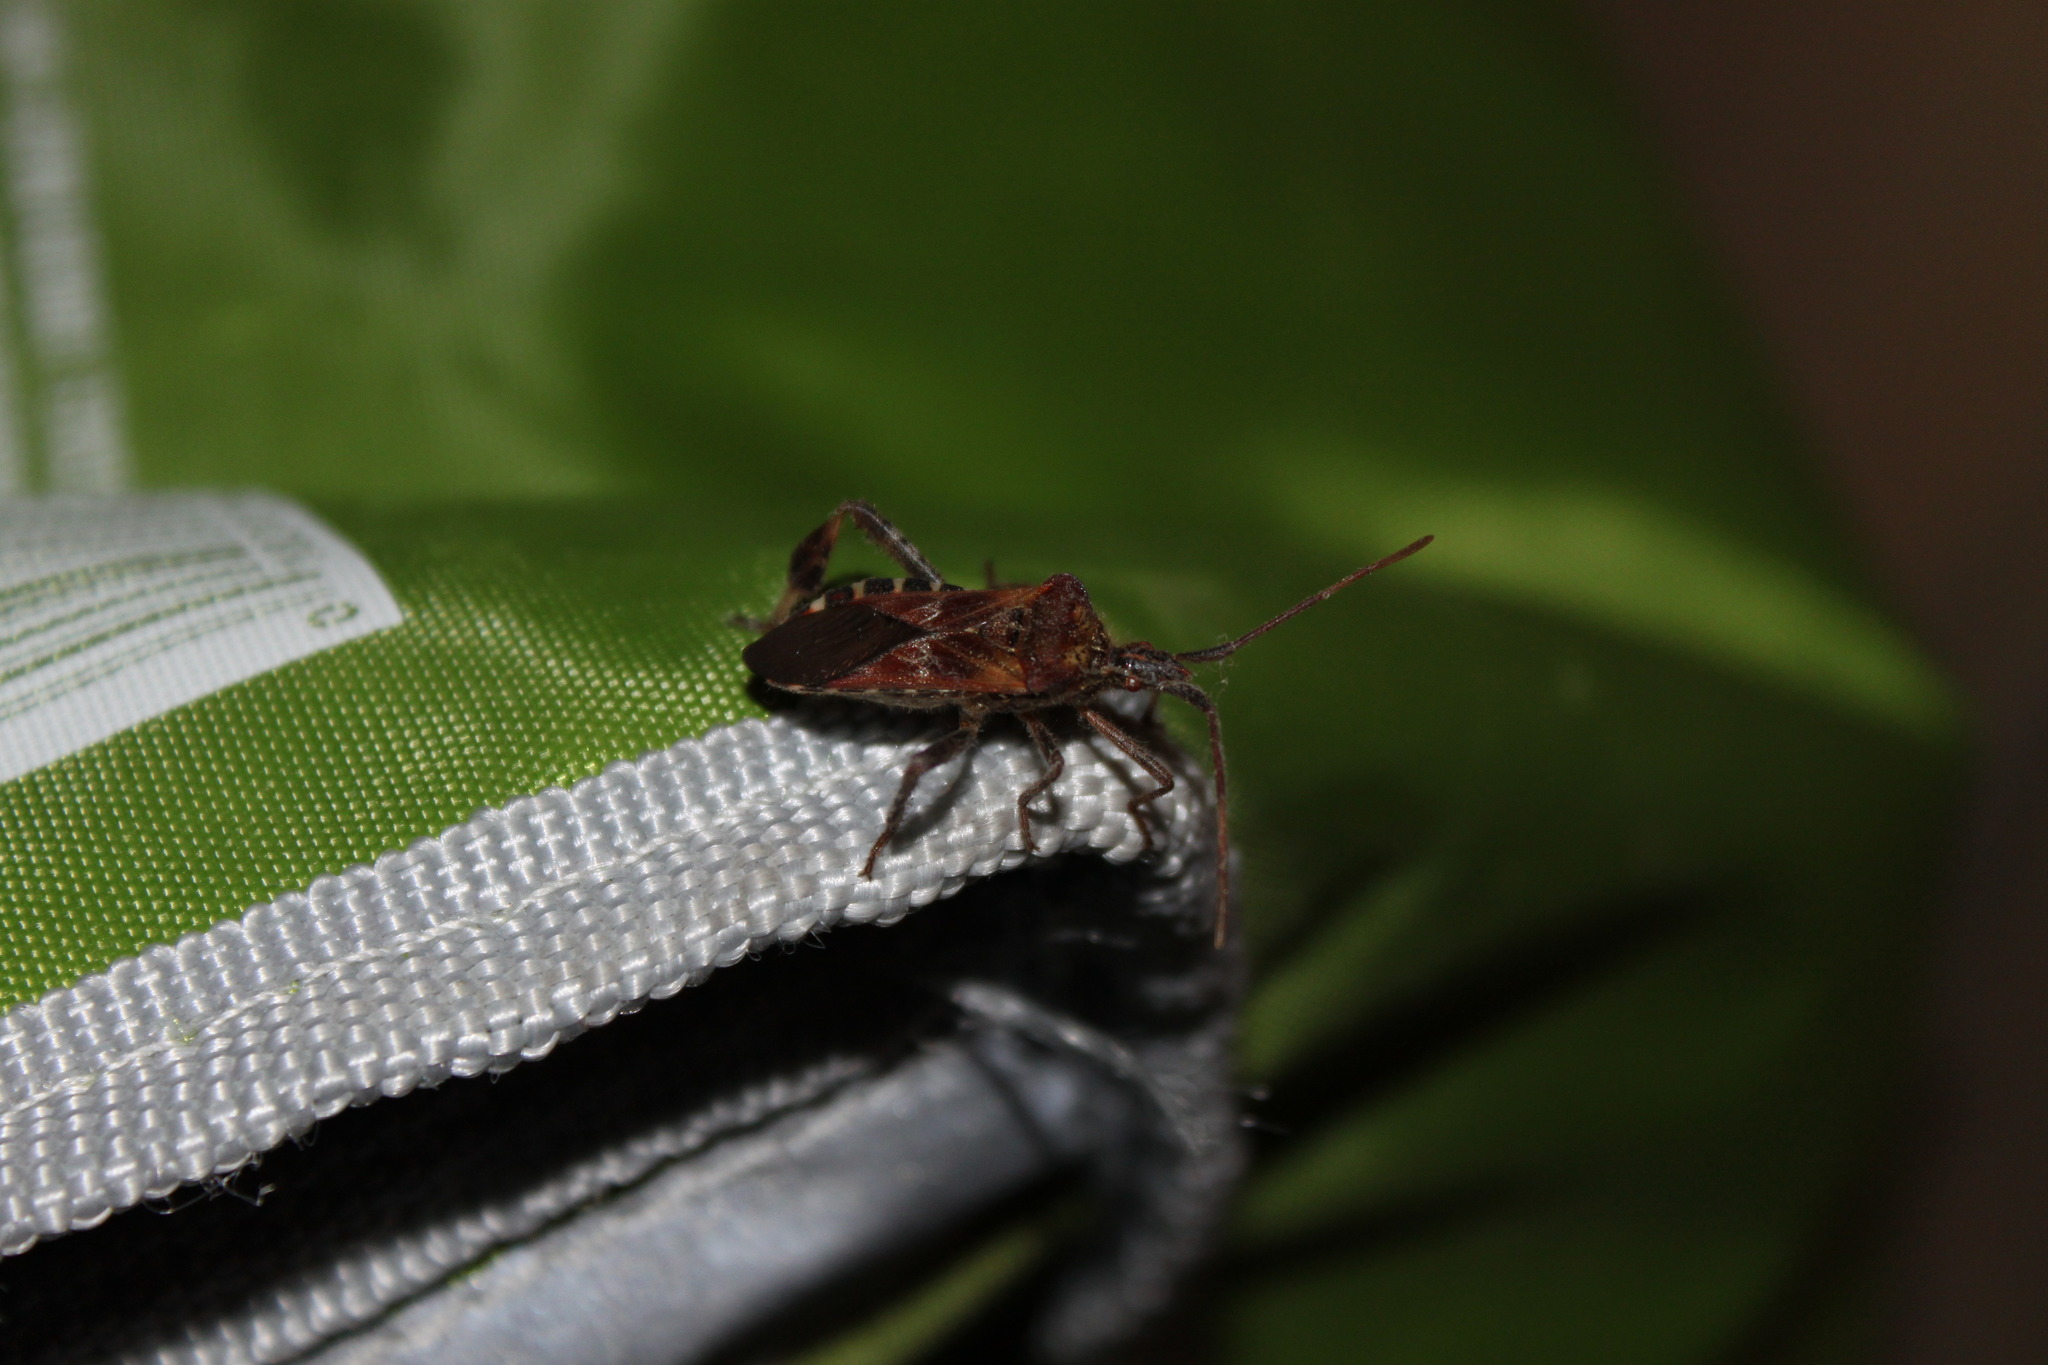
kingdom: Animalia
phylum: Arthropoda
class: Insecta
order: Hemiptera
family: Coreidae
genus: Leptoglossus
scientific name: Leptoglossus occidentalis
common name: Western conifer-seed bug
